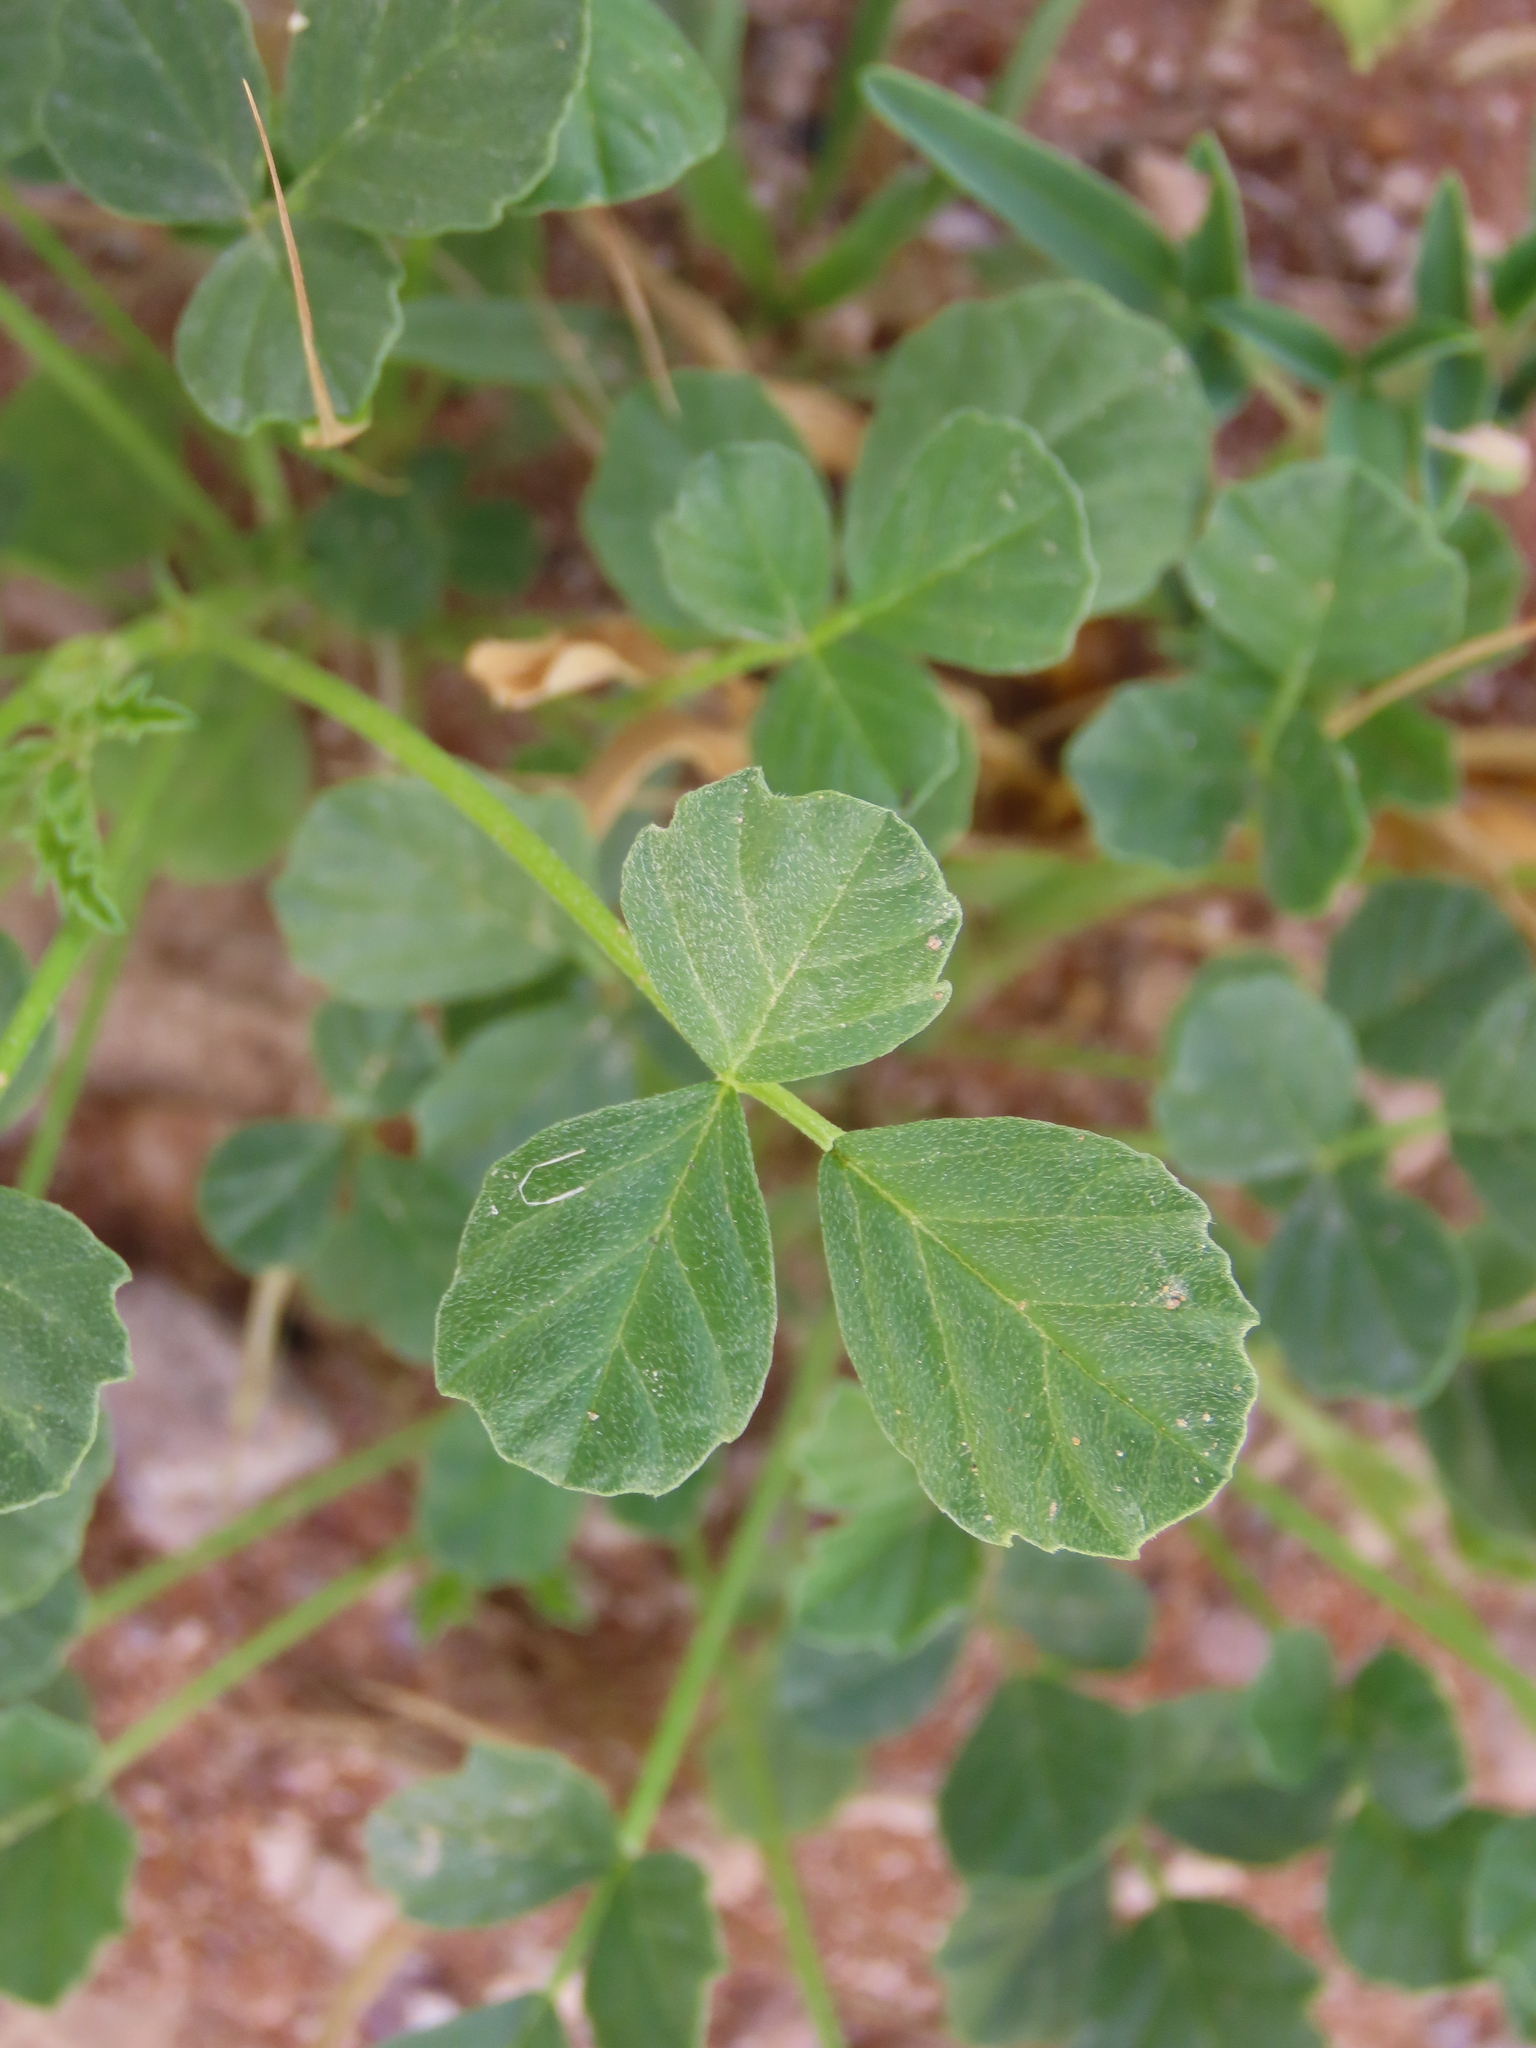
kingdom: Plantae
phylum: Tracheophyta
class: Magnoliopsida
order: Fabales
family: Fabaceae
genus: Cullen
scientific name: Cullen tomentosum
